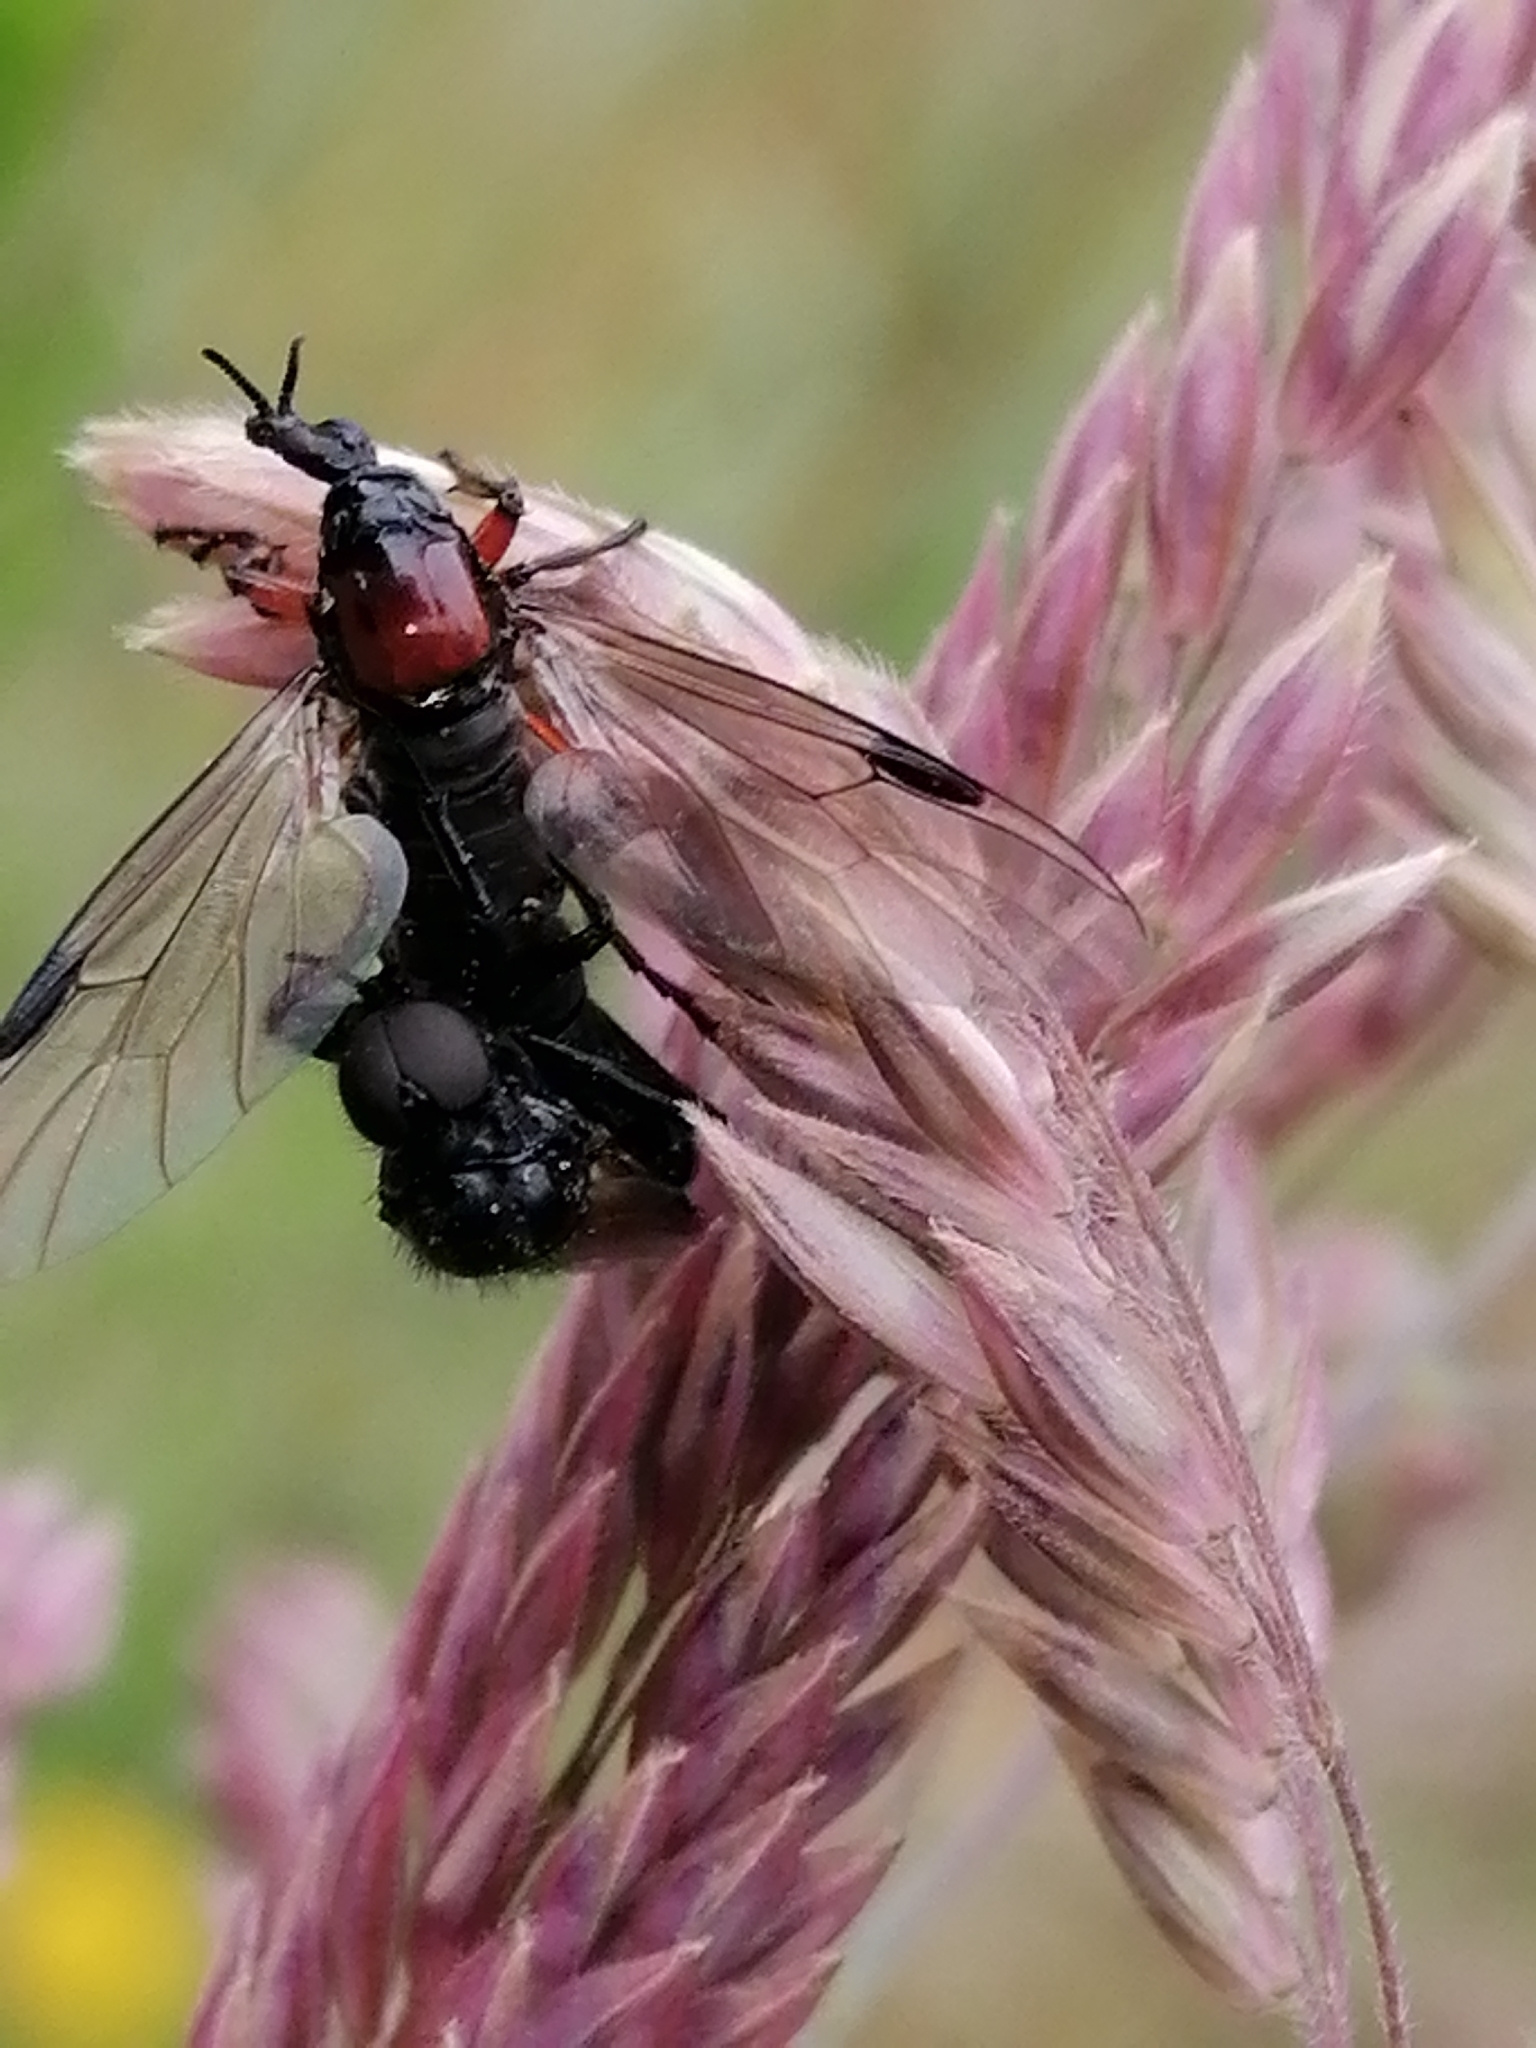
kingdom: Animalia
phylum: Arthropoda
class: Insecta
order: Diptera
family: Bibionidae
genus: Dilophus
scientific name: Dilophus nigrostigma
